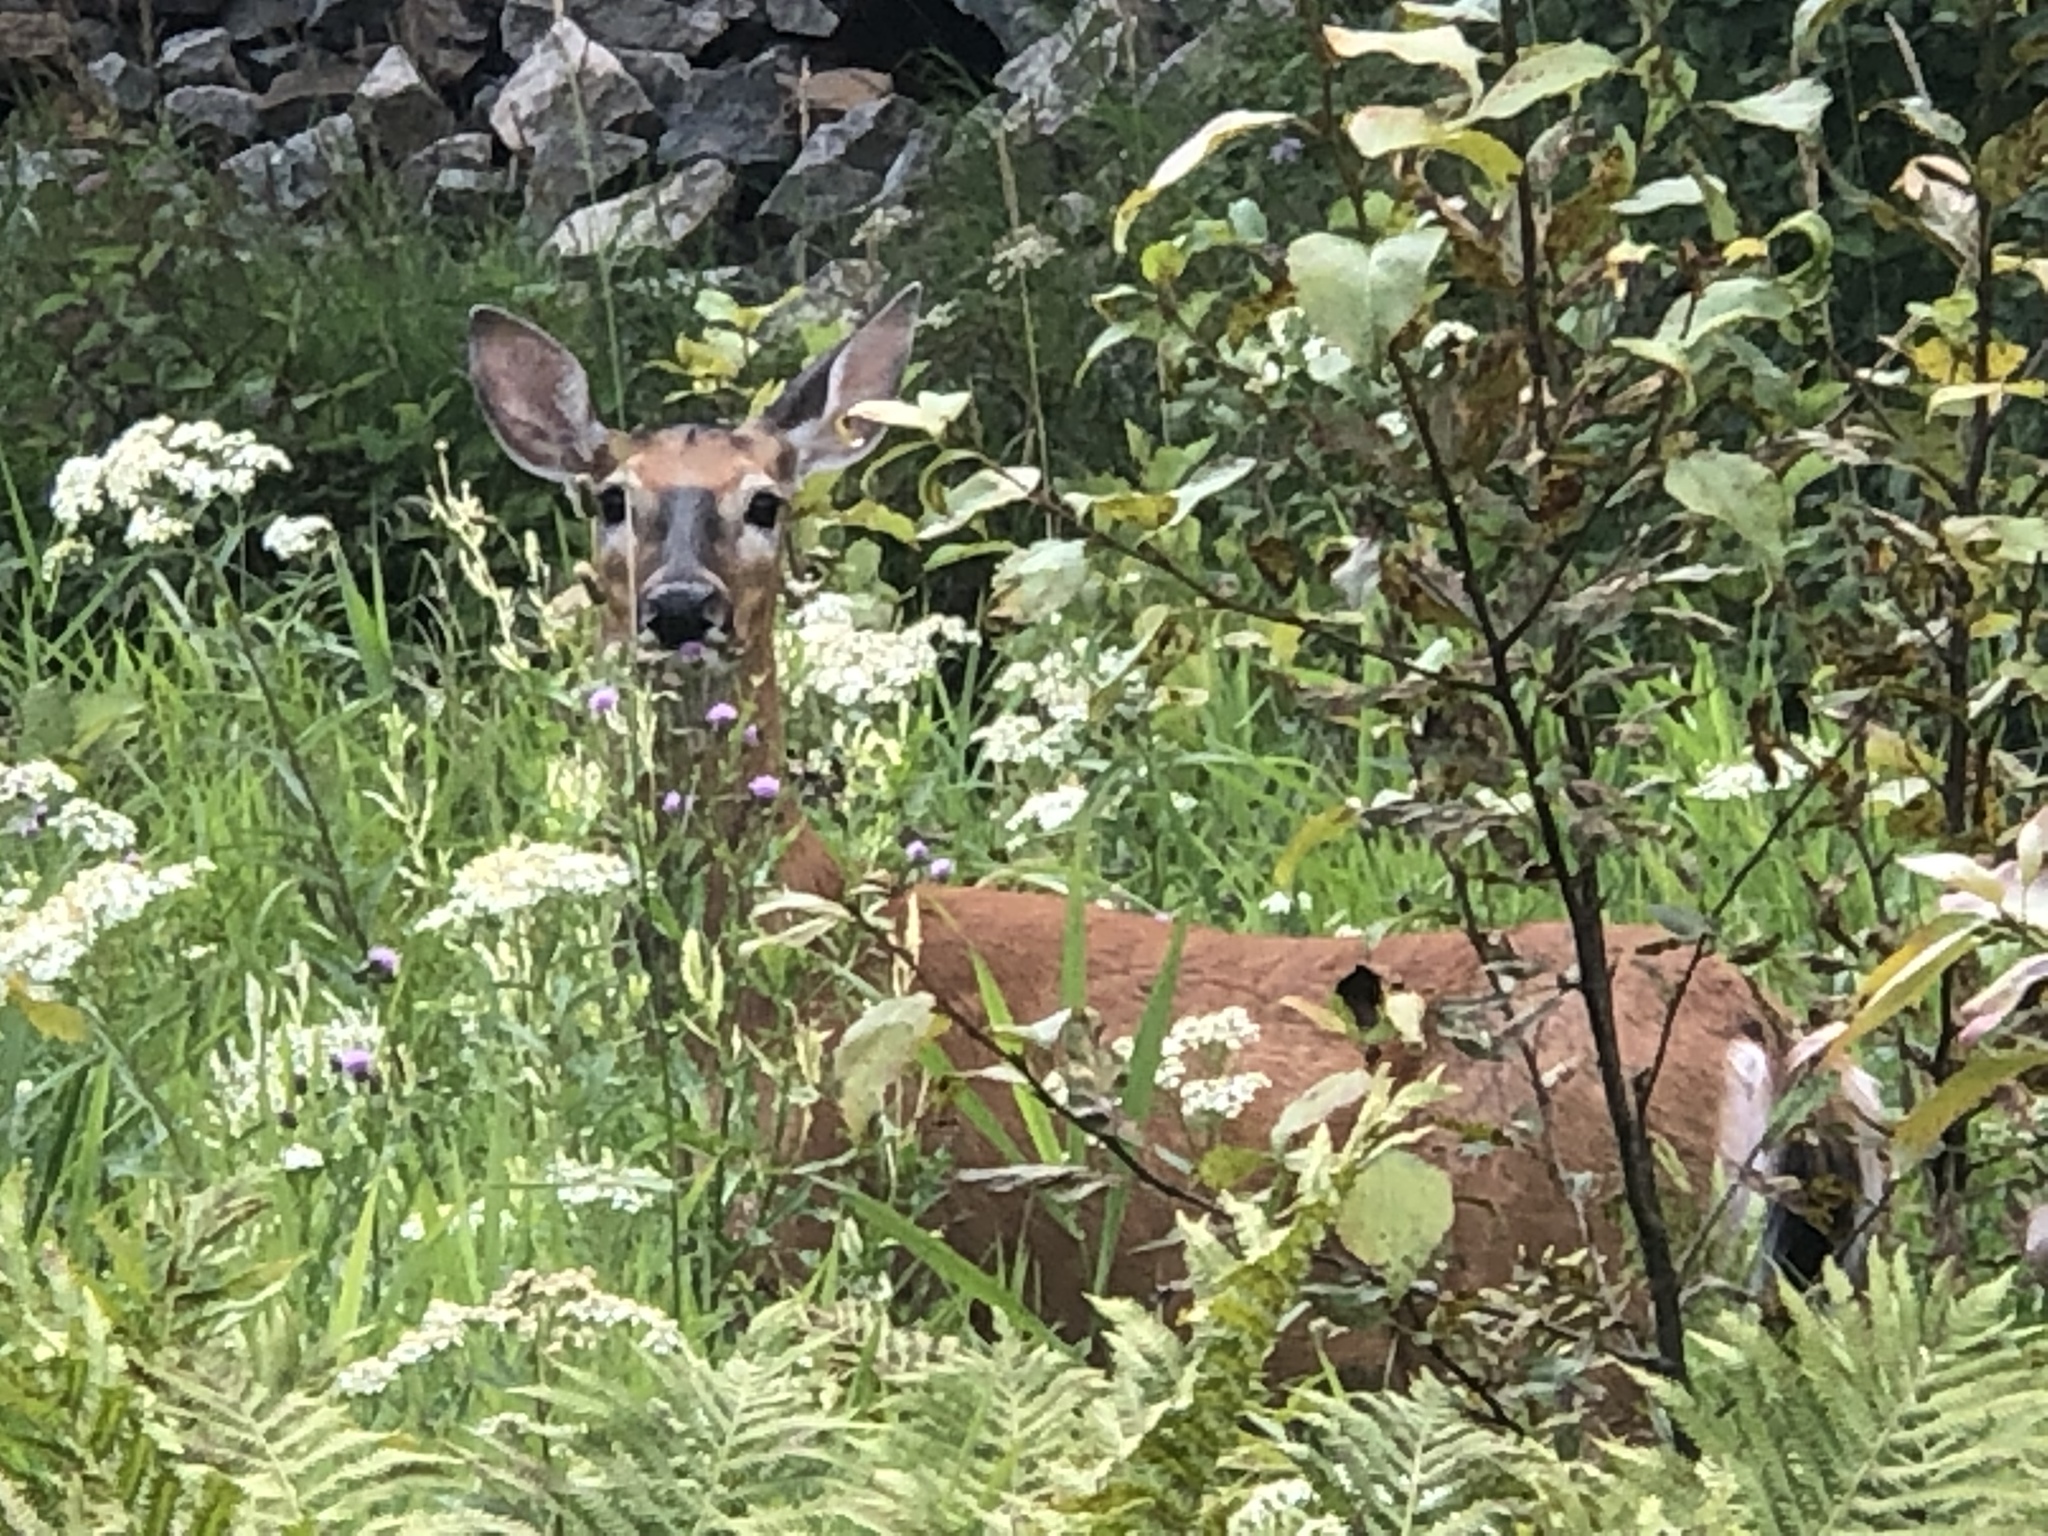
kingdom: Animalia
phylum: Chordata
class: Mammalia
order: Artiodactyla
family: Cervidae
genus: Odocoileus
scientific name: Odocoileus virginianus
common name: White-tailed deer
